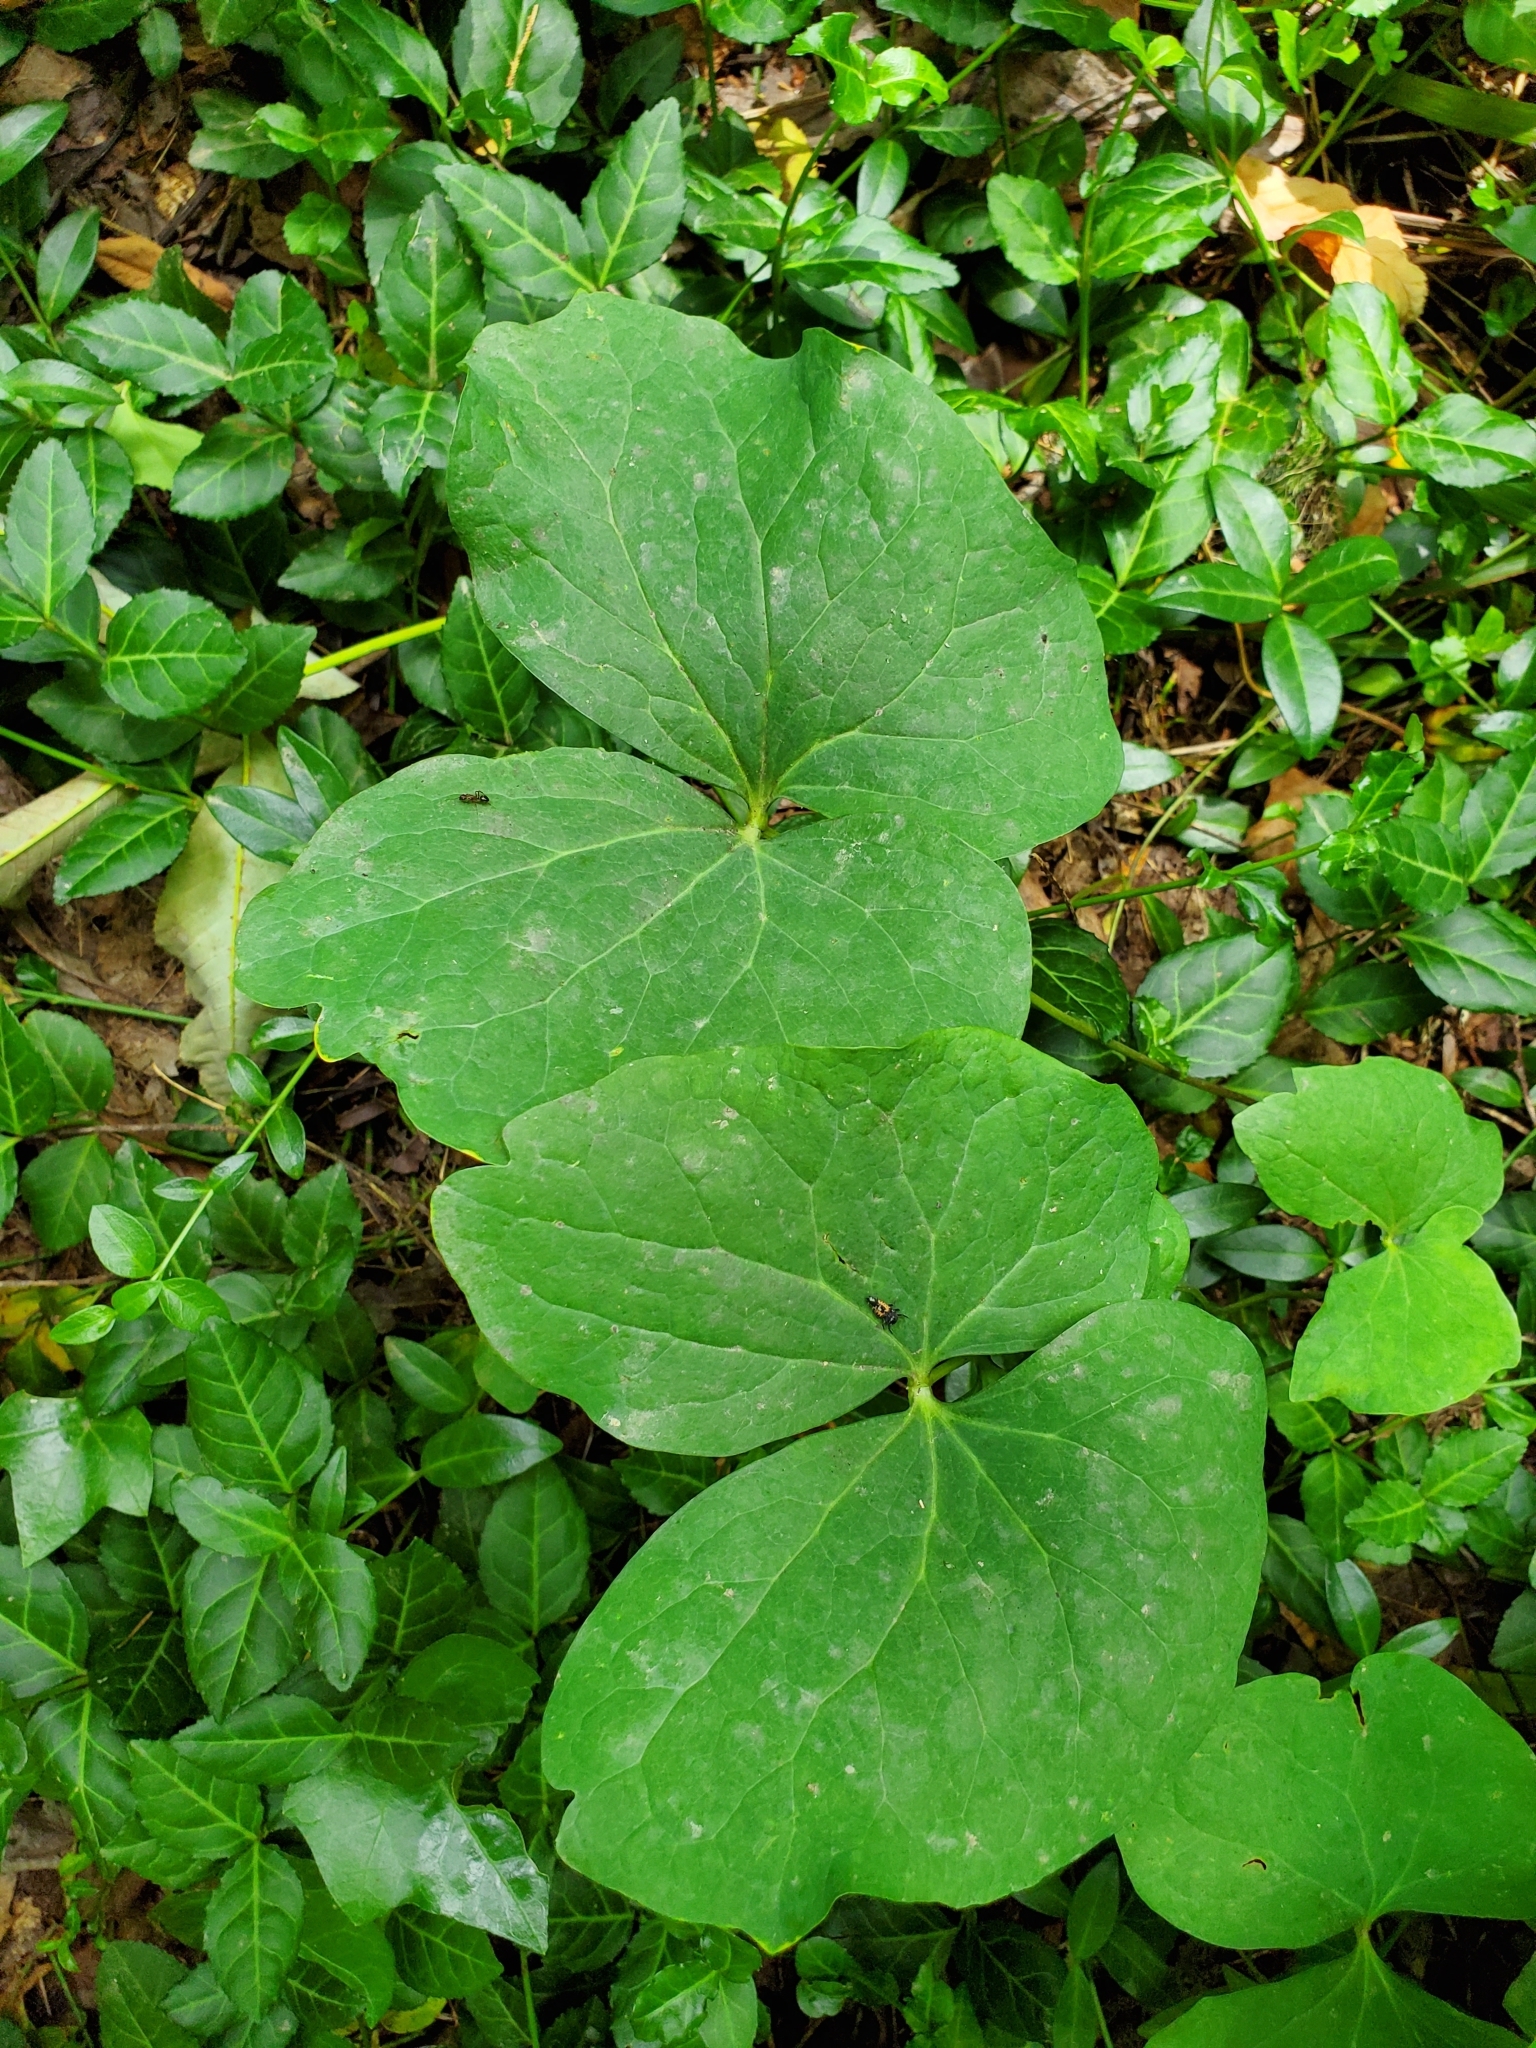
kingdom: Plantae
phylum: Tracheophyta
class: Magnoliopsida
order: Ranunculales
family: Berberidaceae
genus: Jeffersonia
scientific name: Jeffersonia diphylla
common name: Rheumatism-root
